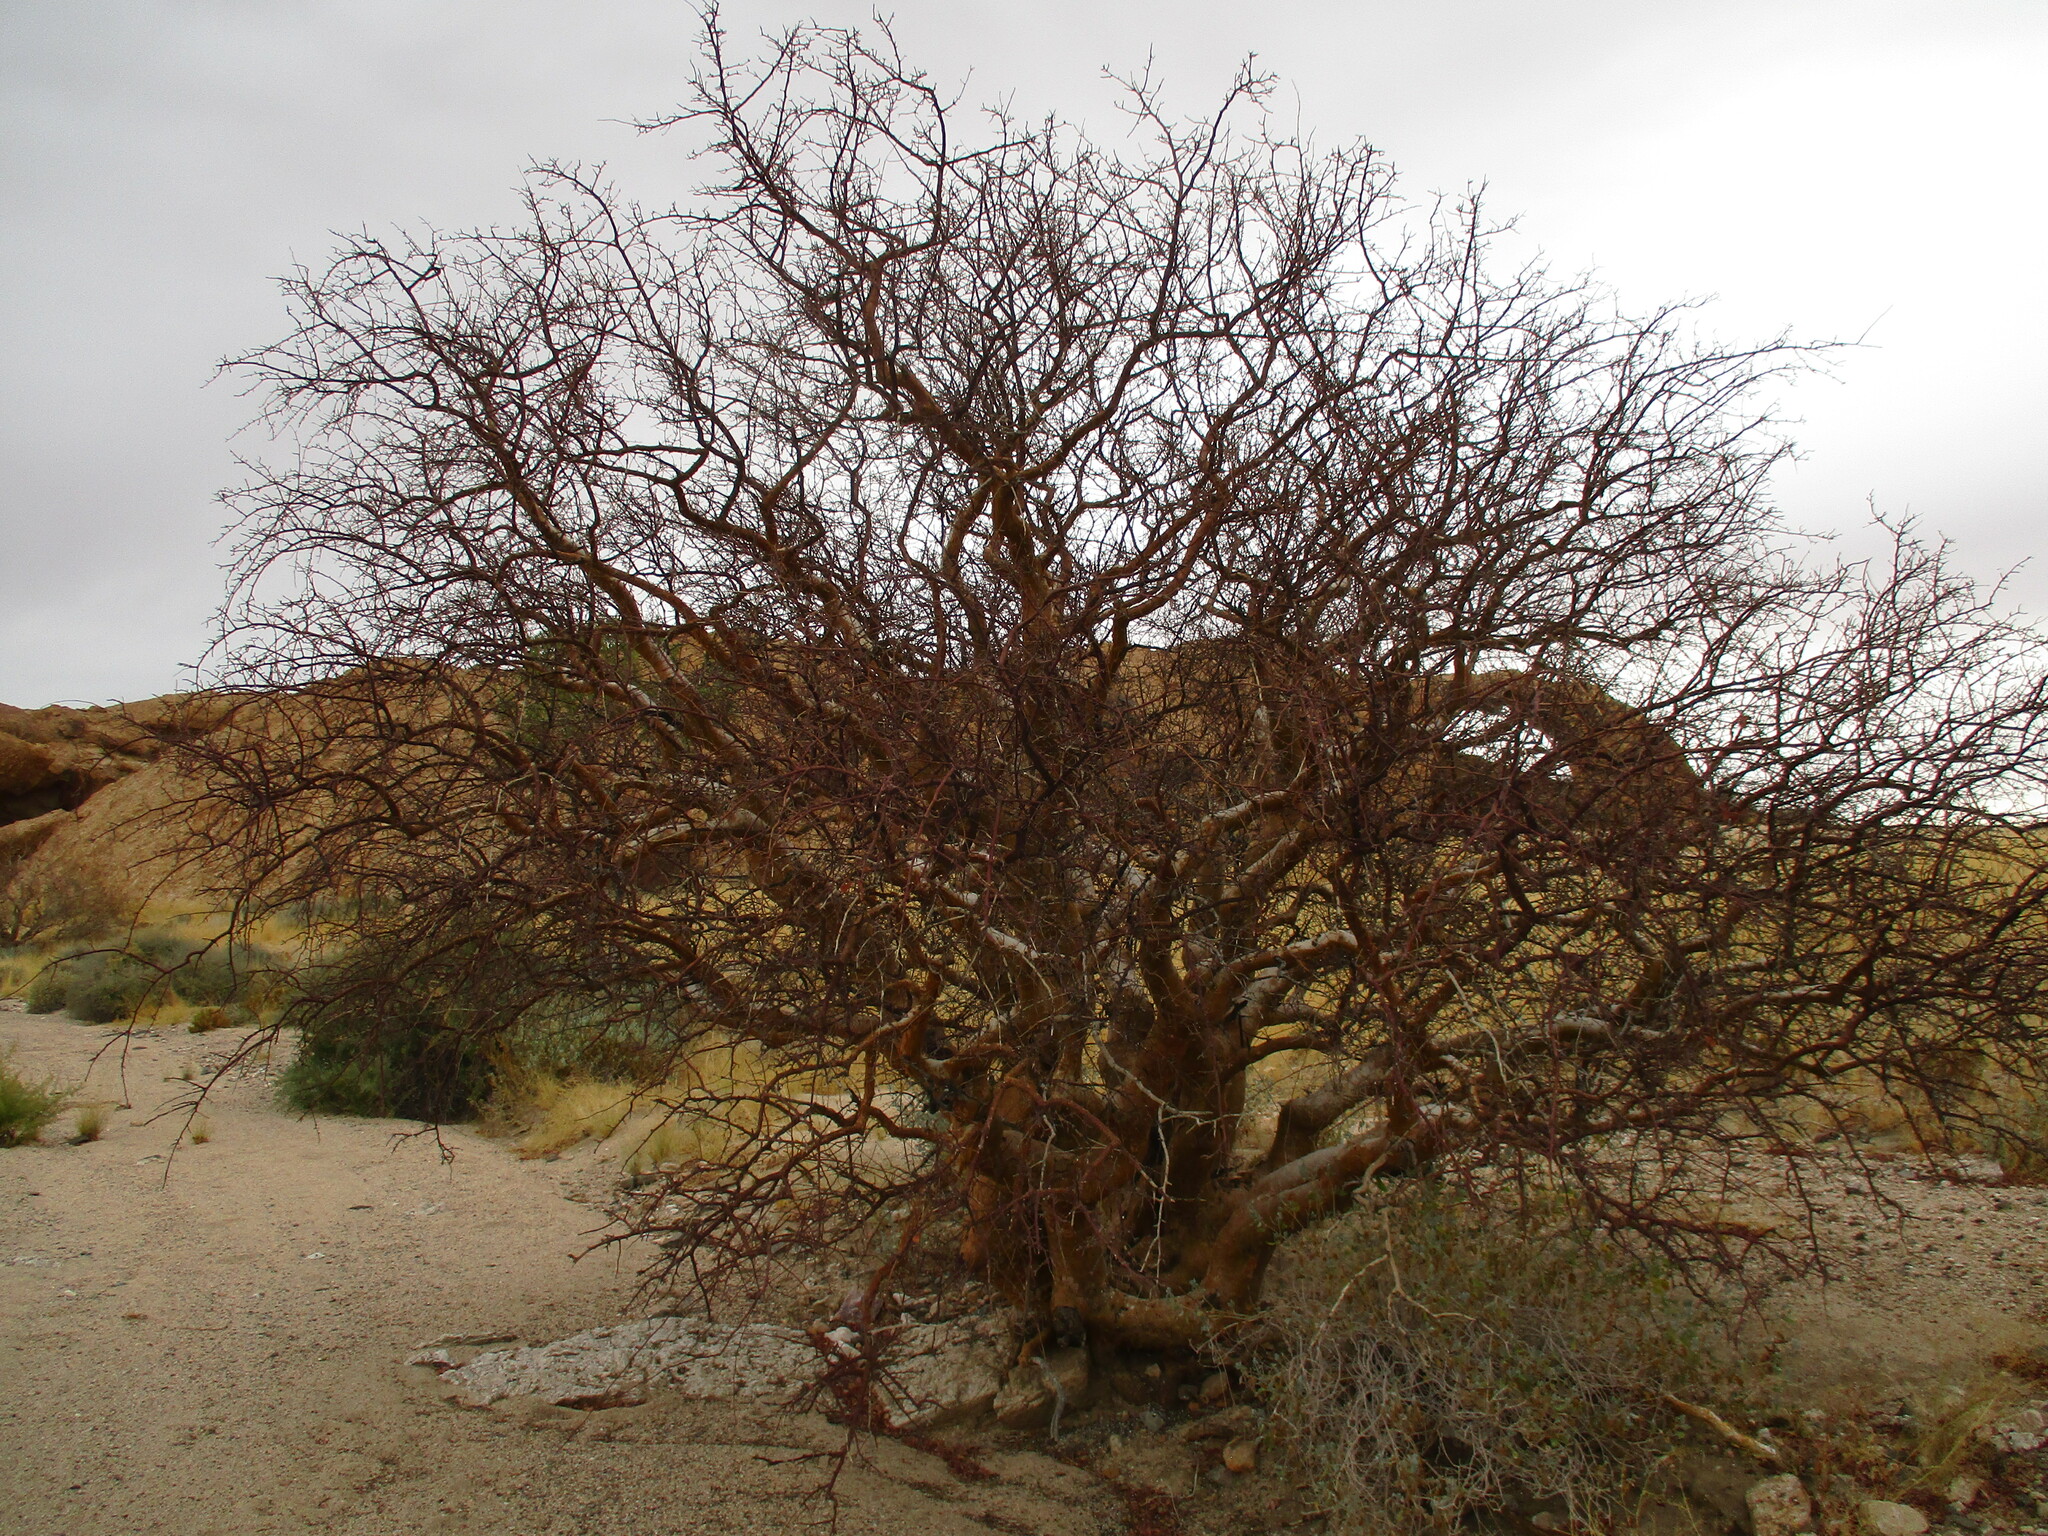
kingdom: Plantae
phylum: Tracheophyta
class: Magnoliopsida
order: Sapindales
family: Burseraceae
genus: Commiphora
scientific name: Commiphora glaucescens
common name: Blue-leaved corkwood
